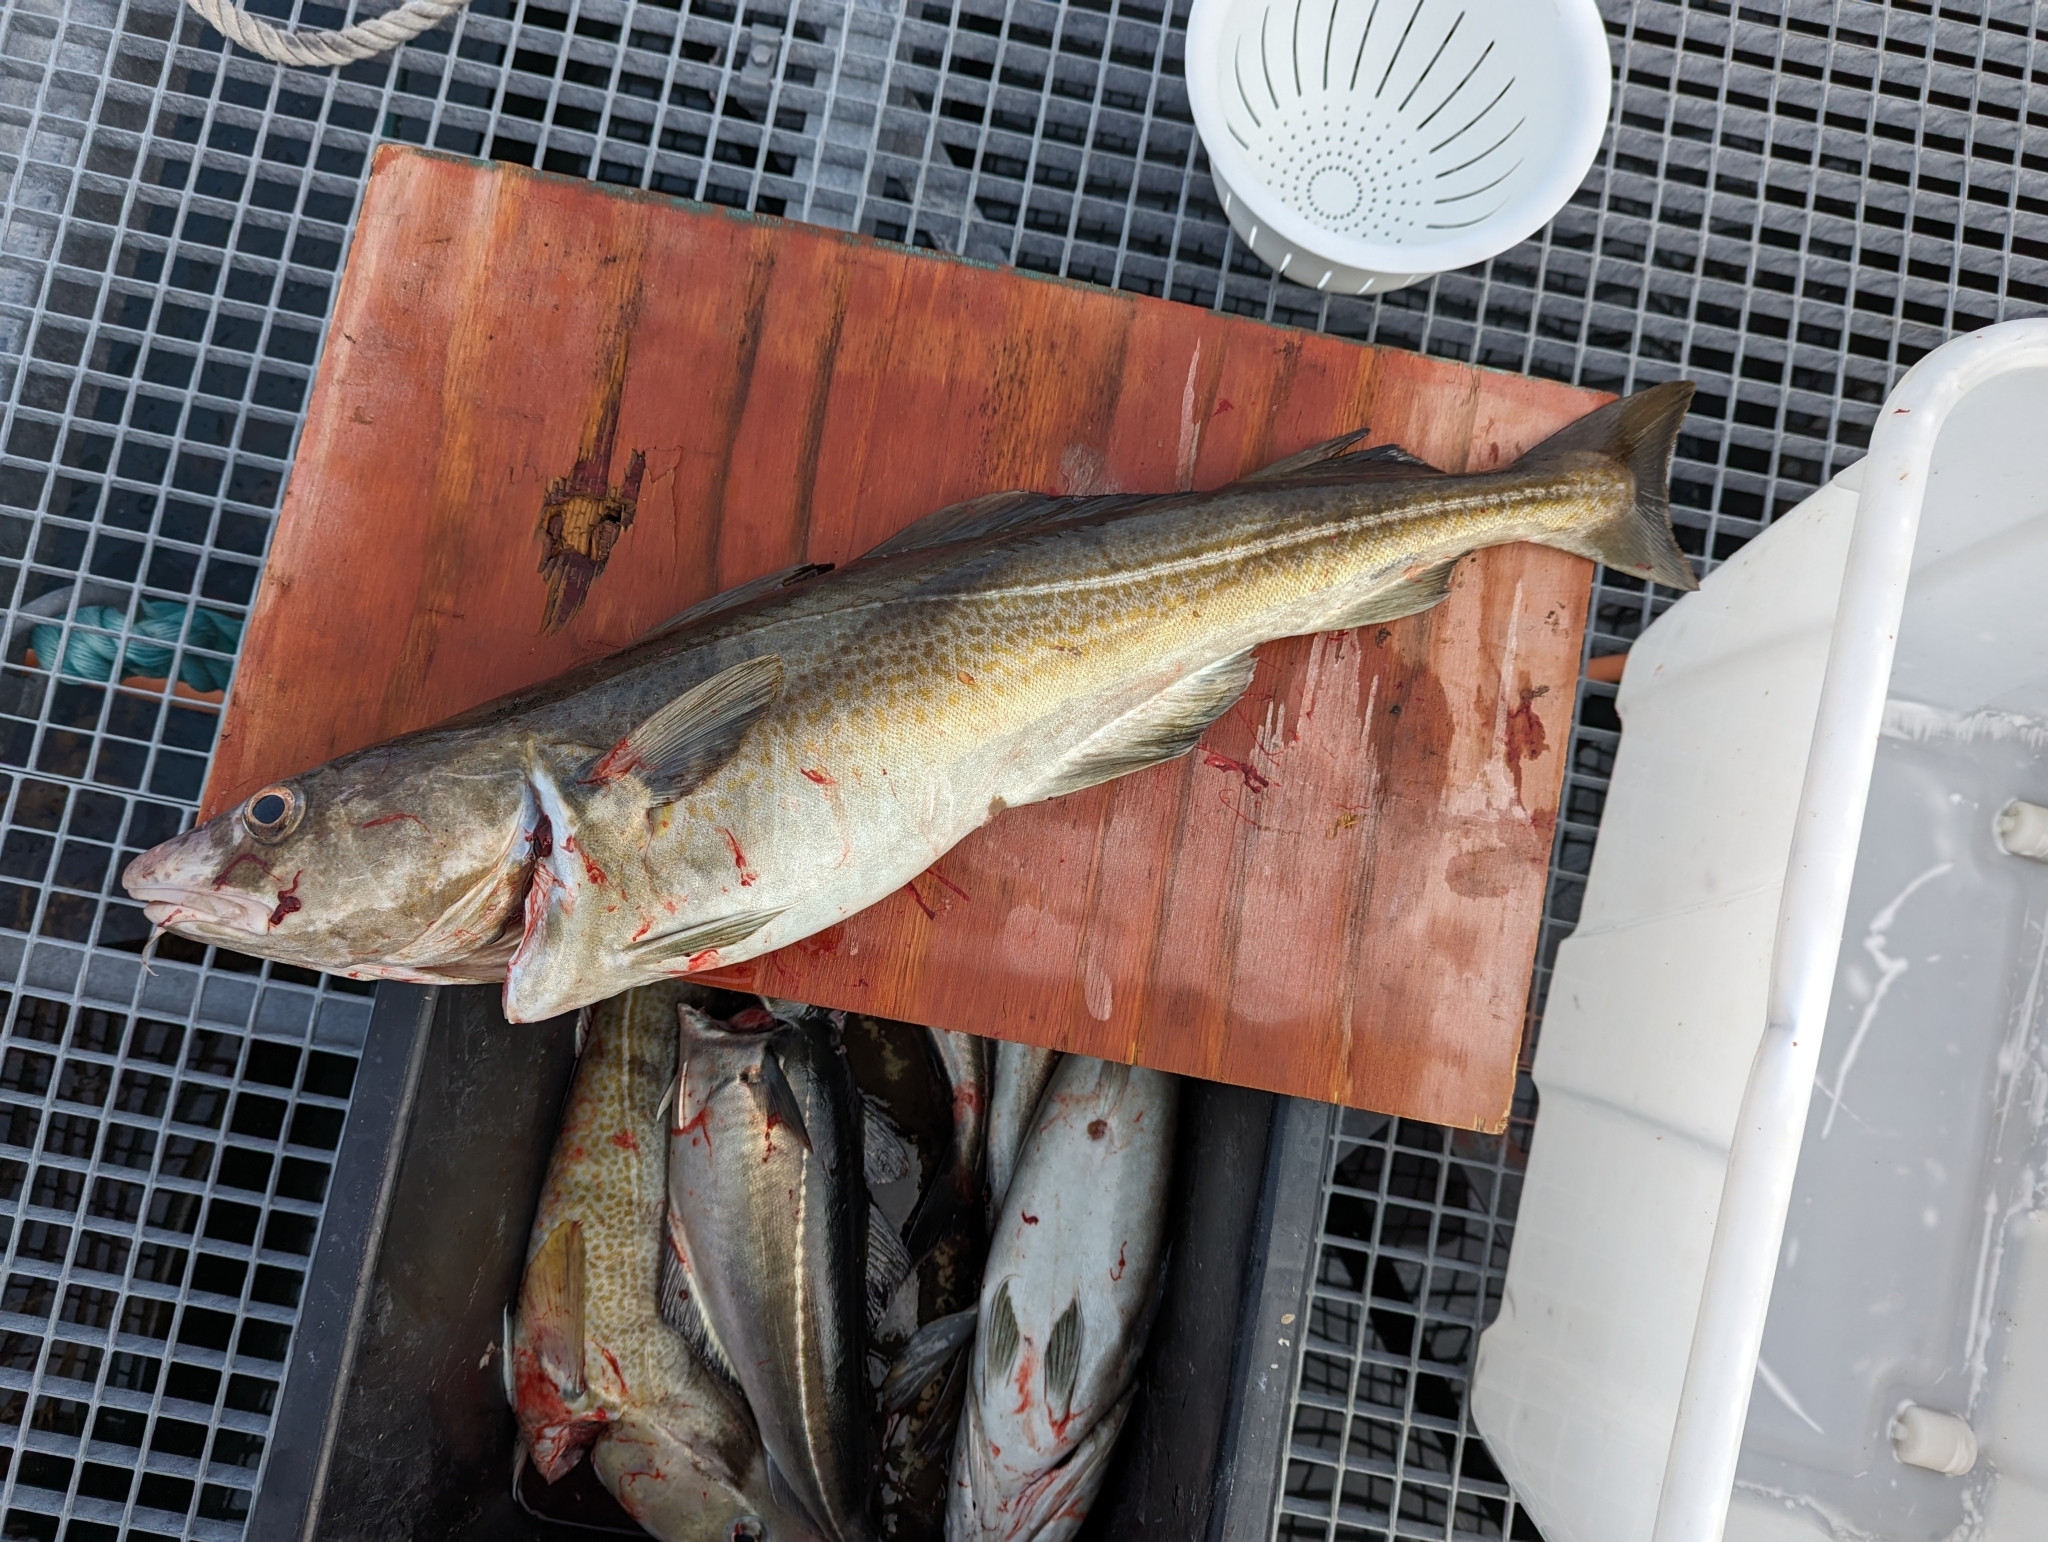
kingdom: Animalia
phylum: Chordata
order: Gadiformes
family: Gadidae
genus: Gadus
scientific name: Gadus morhua
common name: Atlantic cod
